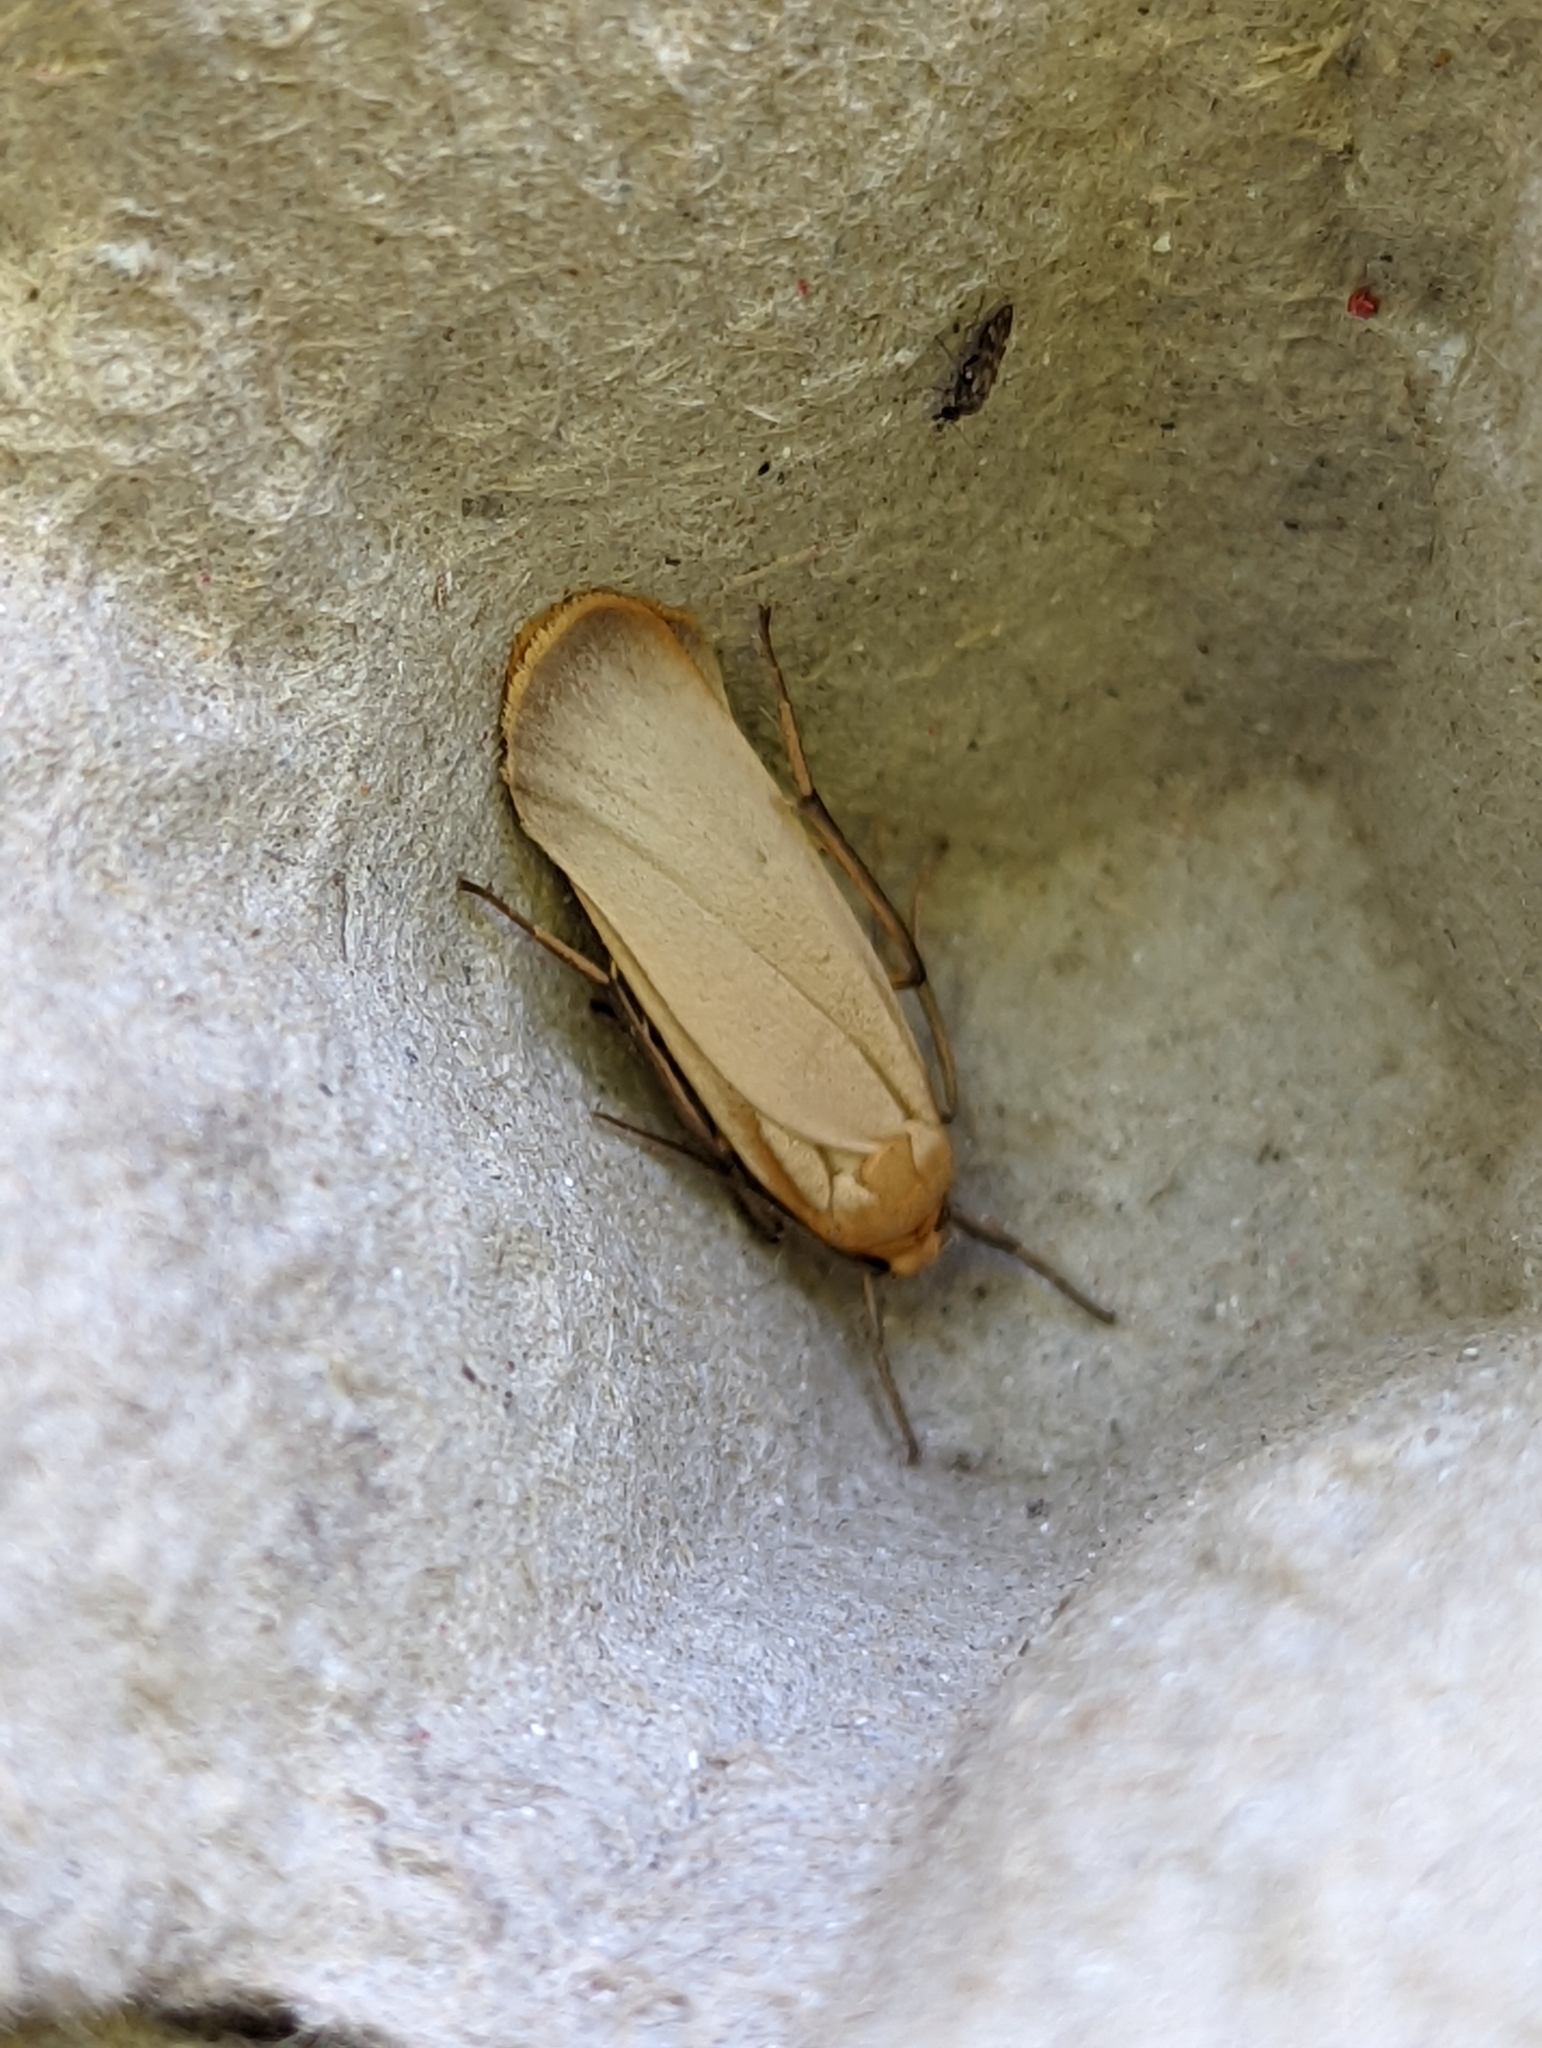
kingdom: Animalia
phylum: Arthropoda
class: Insecta
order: Lepidoptera
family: Erebidae
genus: Katha
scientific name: Katha depressa
